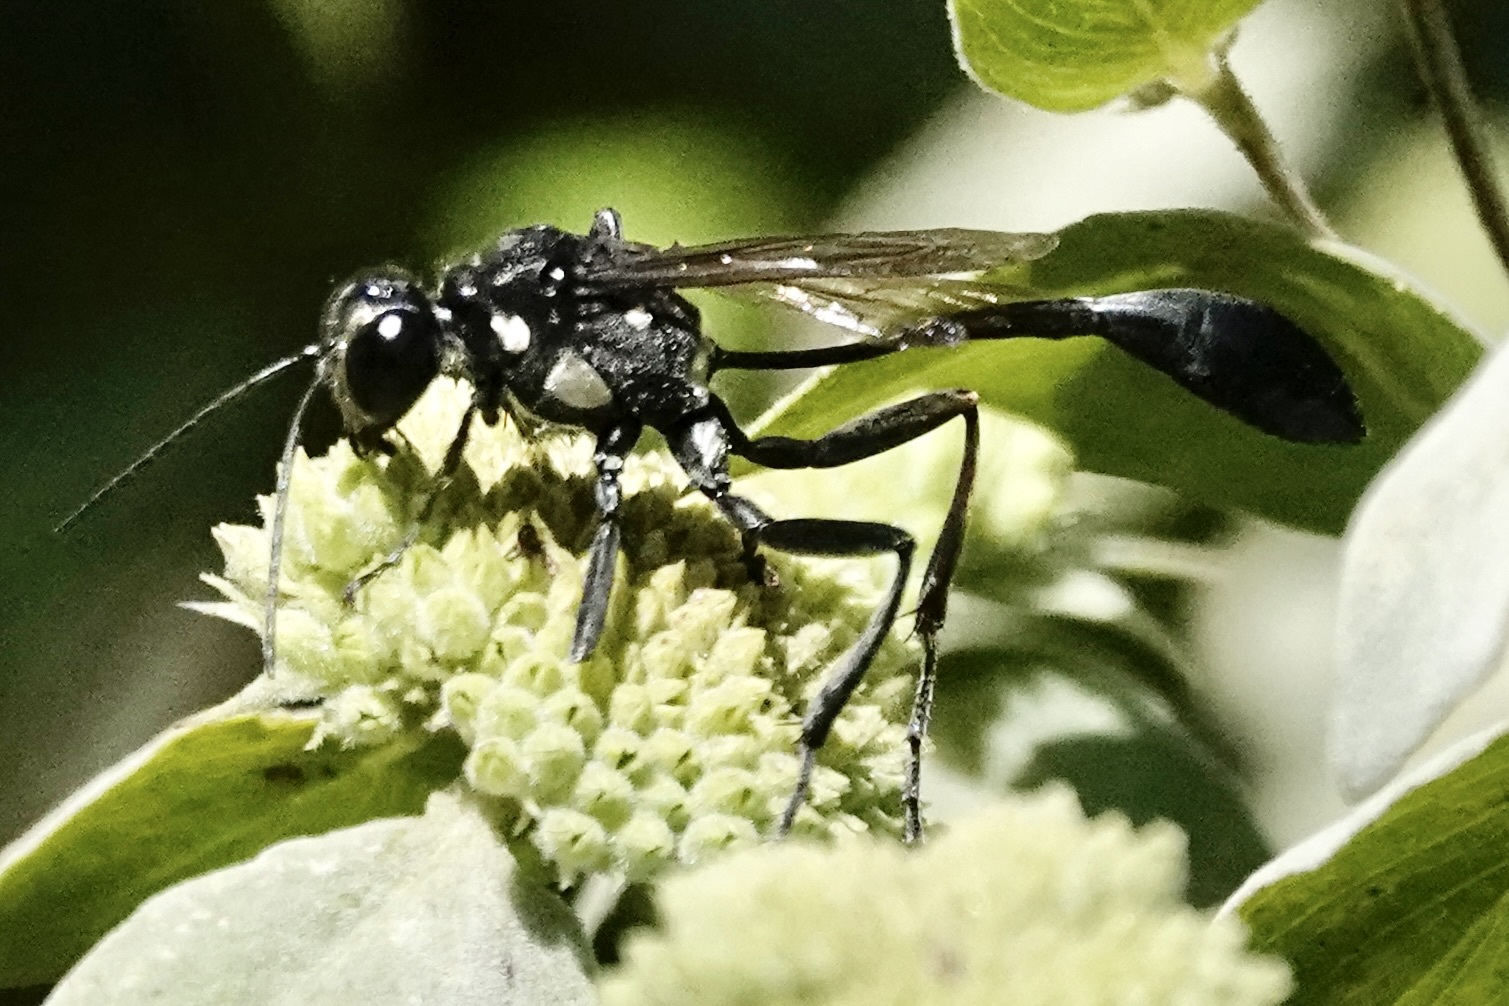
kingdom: Animalia
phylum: Arthropoda
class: Insecta
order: Hymenoptera
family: Sphecidae
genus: Eremnophila
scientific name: Eremnophila aureonotata
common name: Gold-marked thread-waisted wasp
